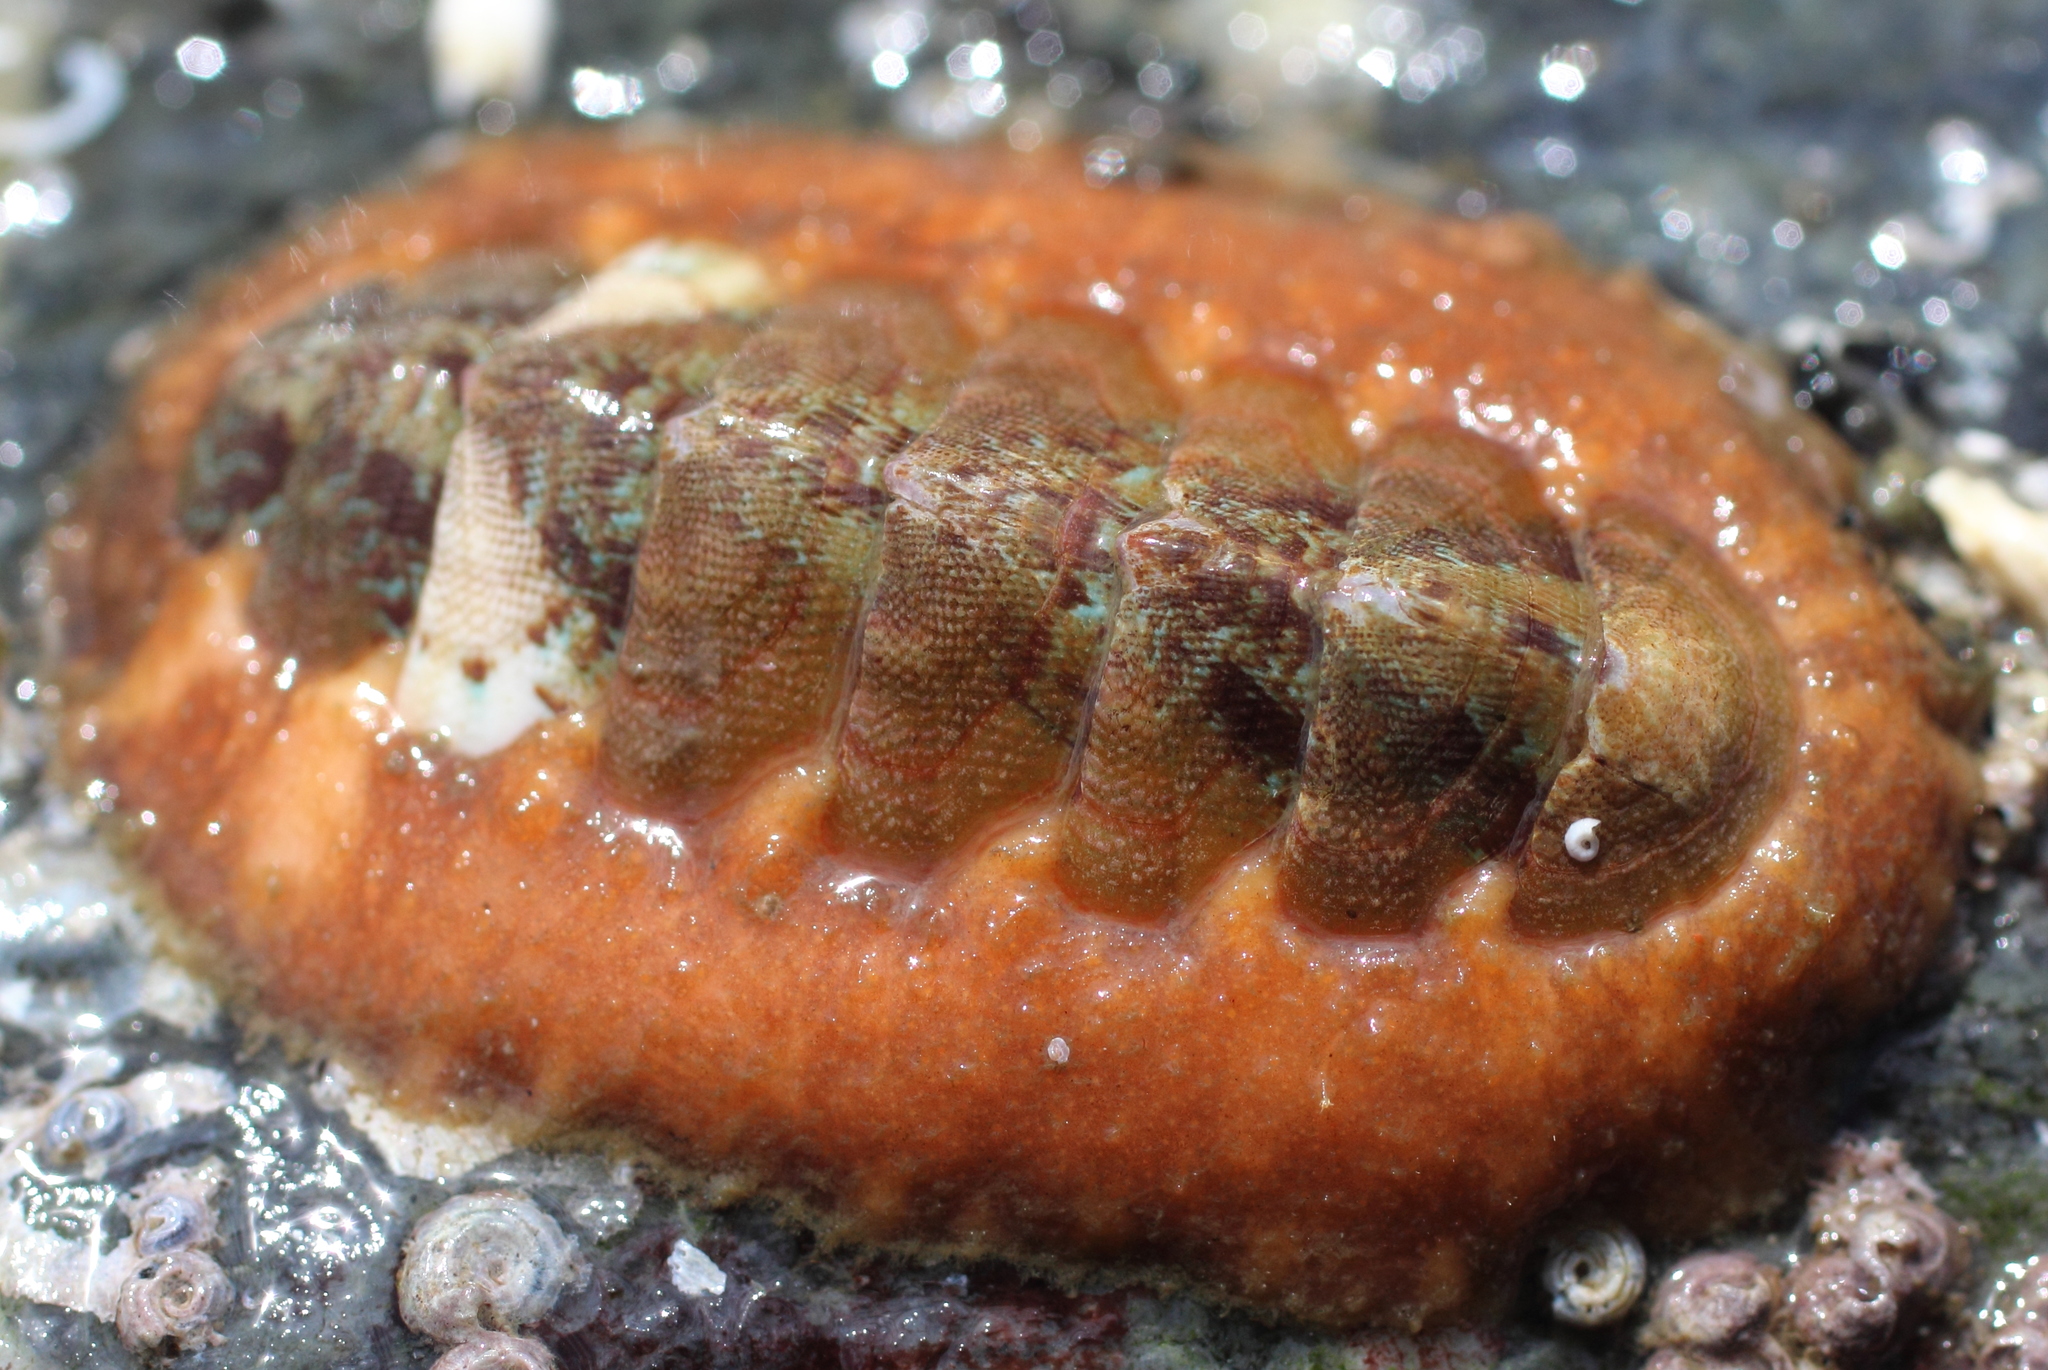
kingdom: Animalia
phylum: Mollusca
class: Polyplacophora
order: Chitonida
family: Mopaliidae
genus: Mopalia
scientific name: Mopalia swanii
